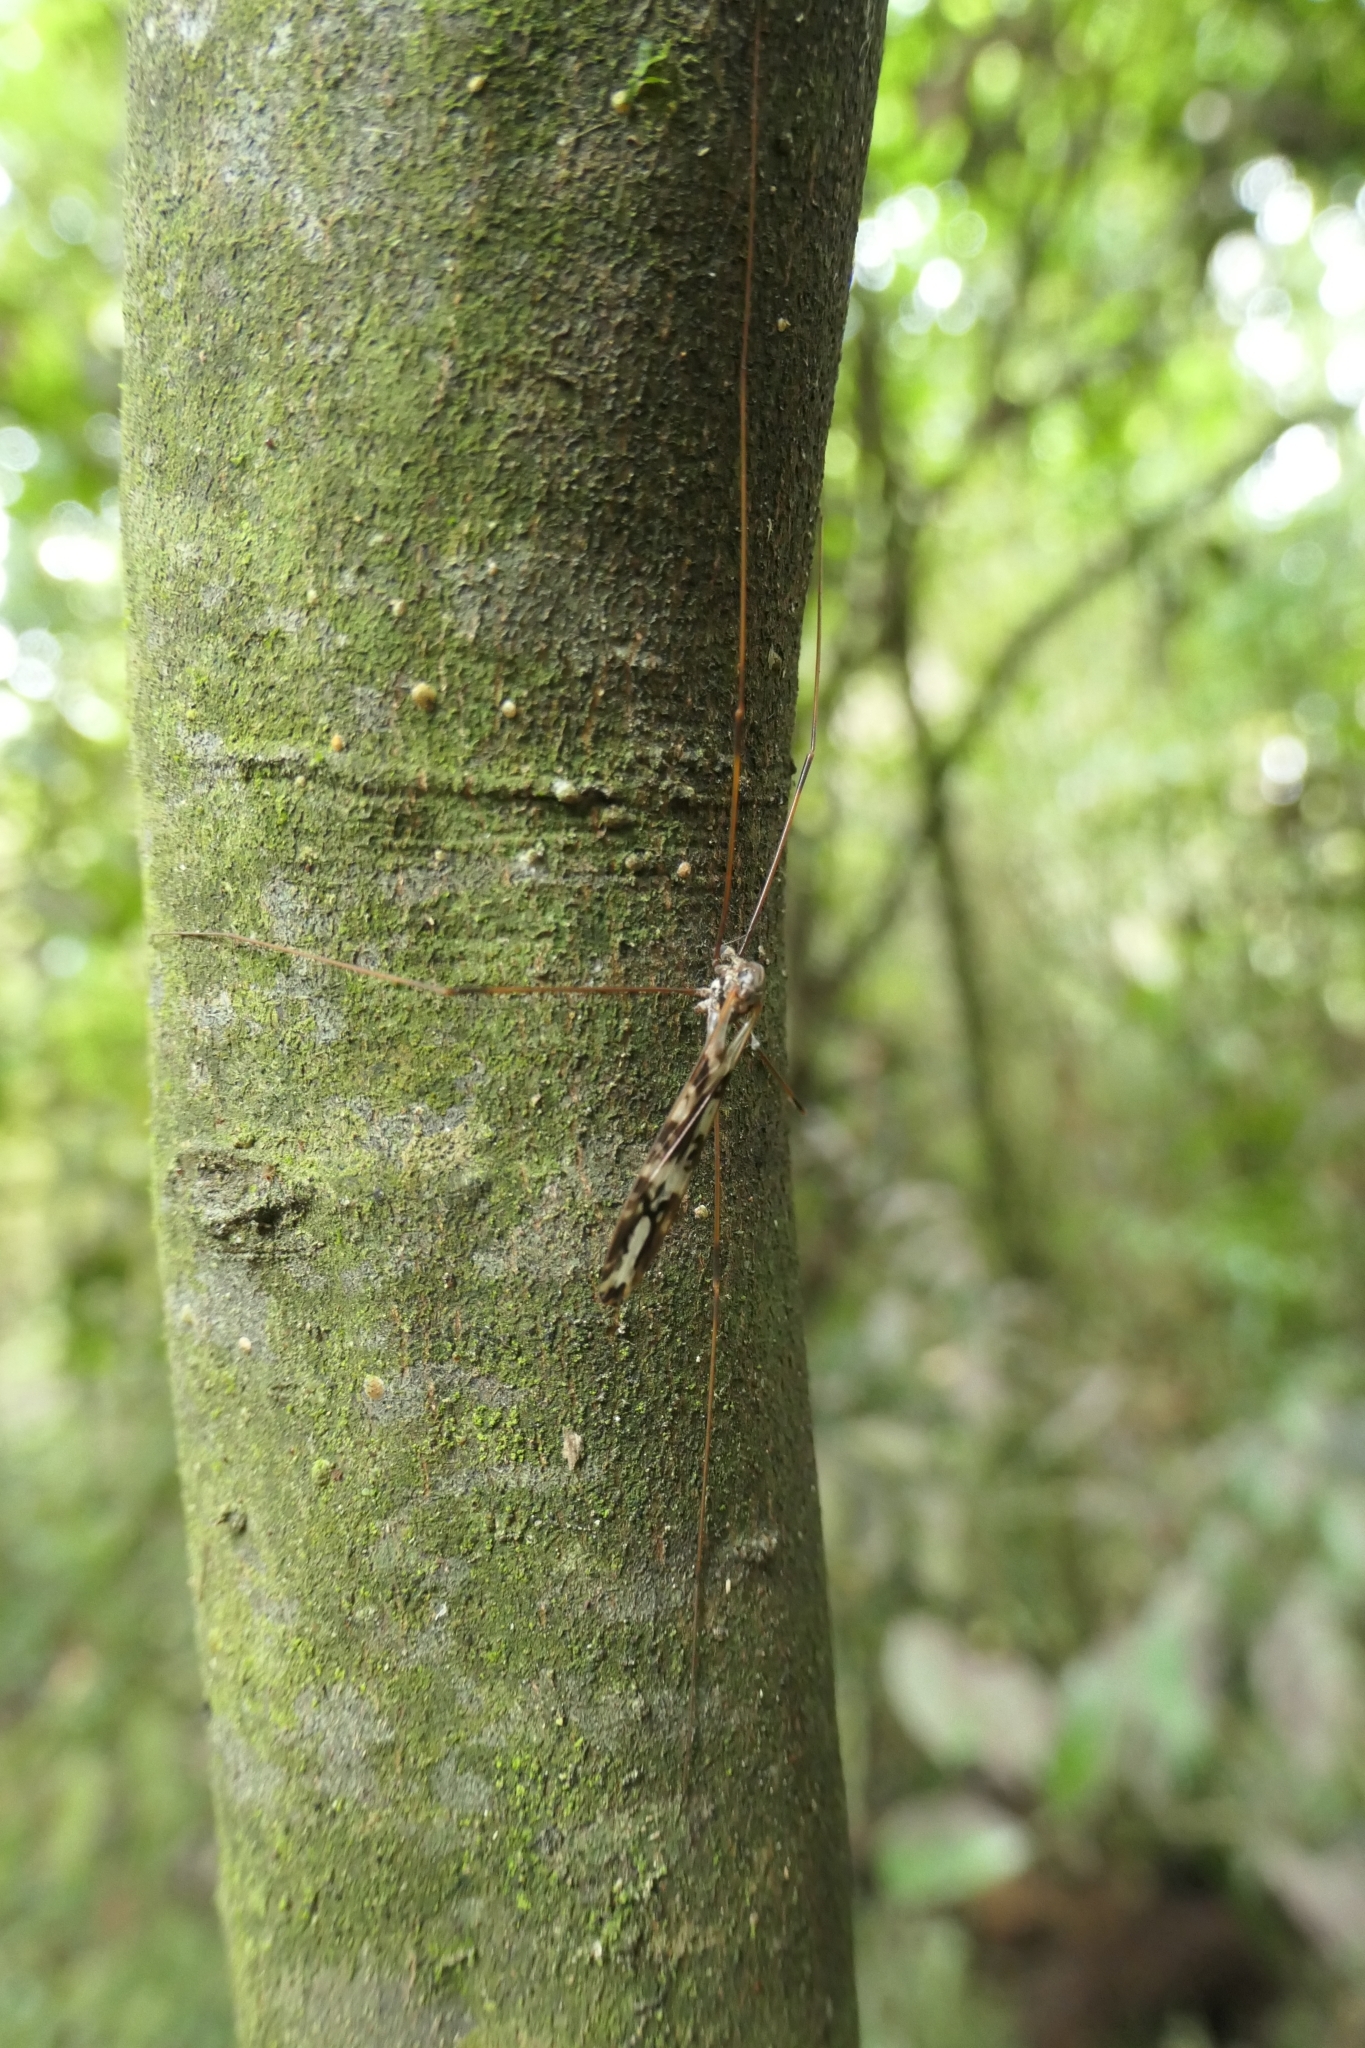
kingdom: Animalia
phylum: Arthropoda
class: Insecta
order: Diptera
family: Limoniidae
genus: Discobola
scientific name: Discobola dohrni
